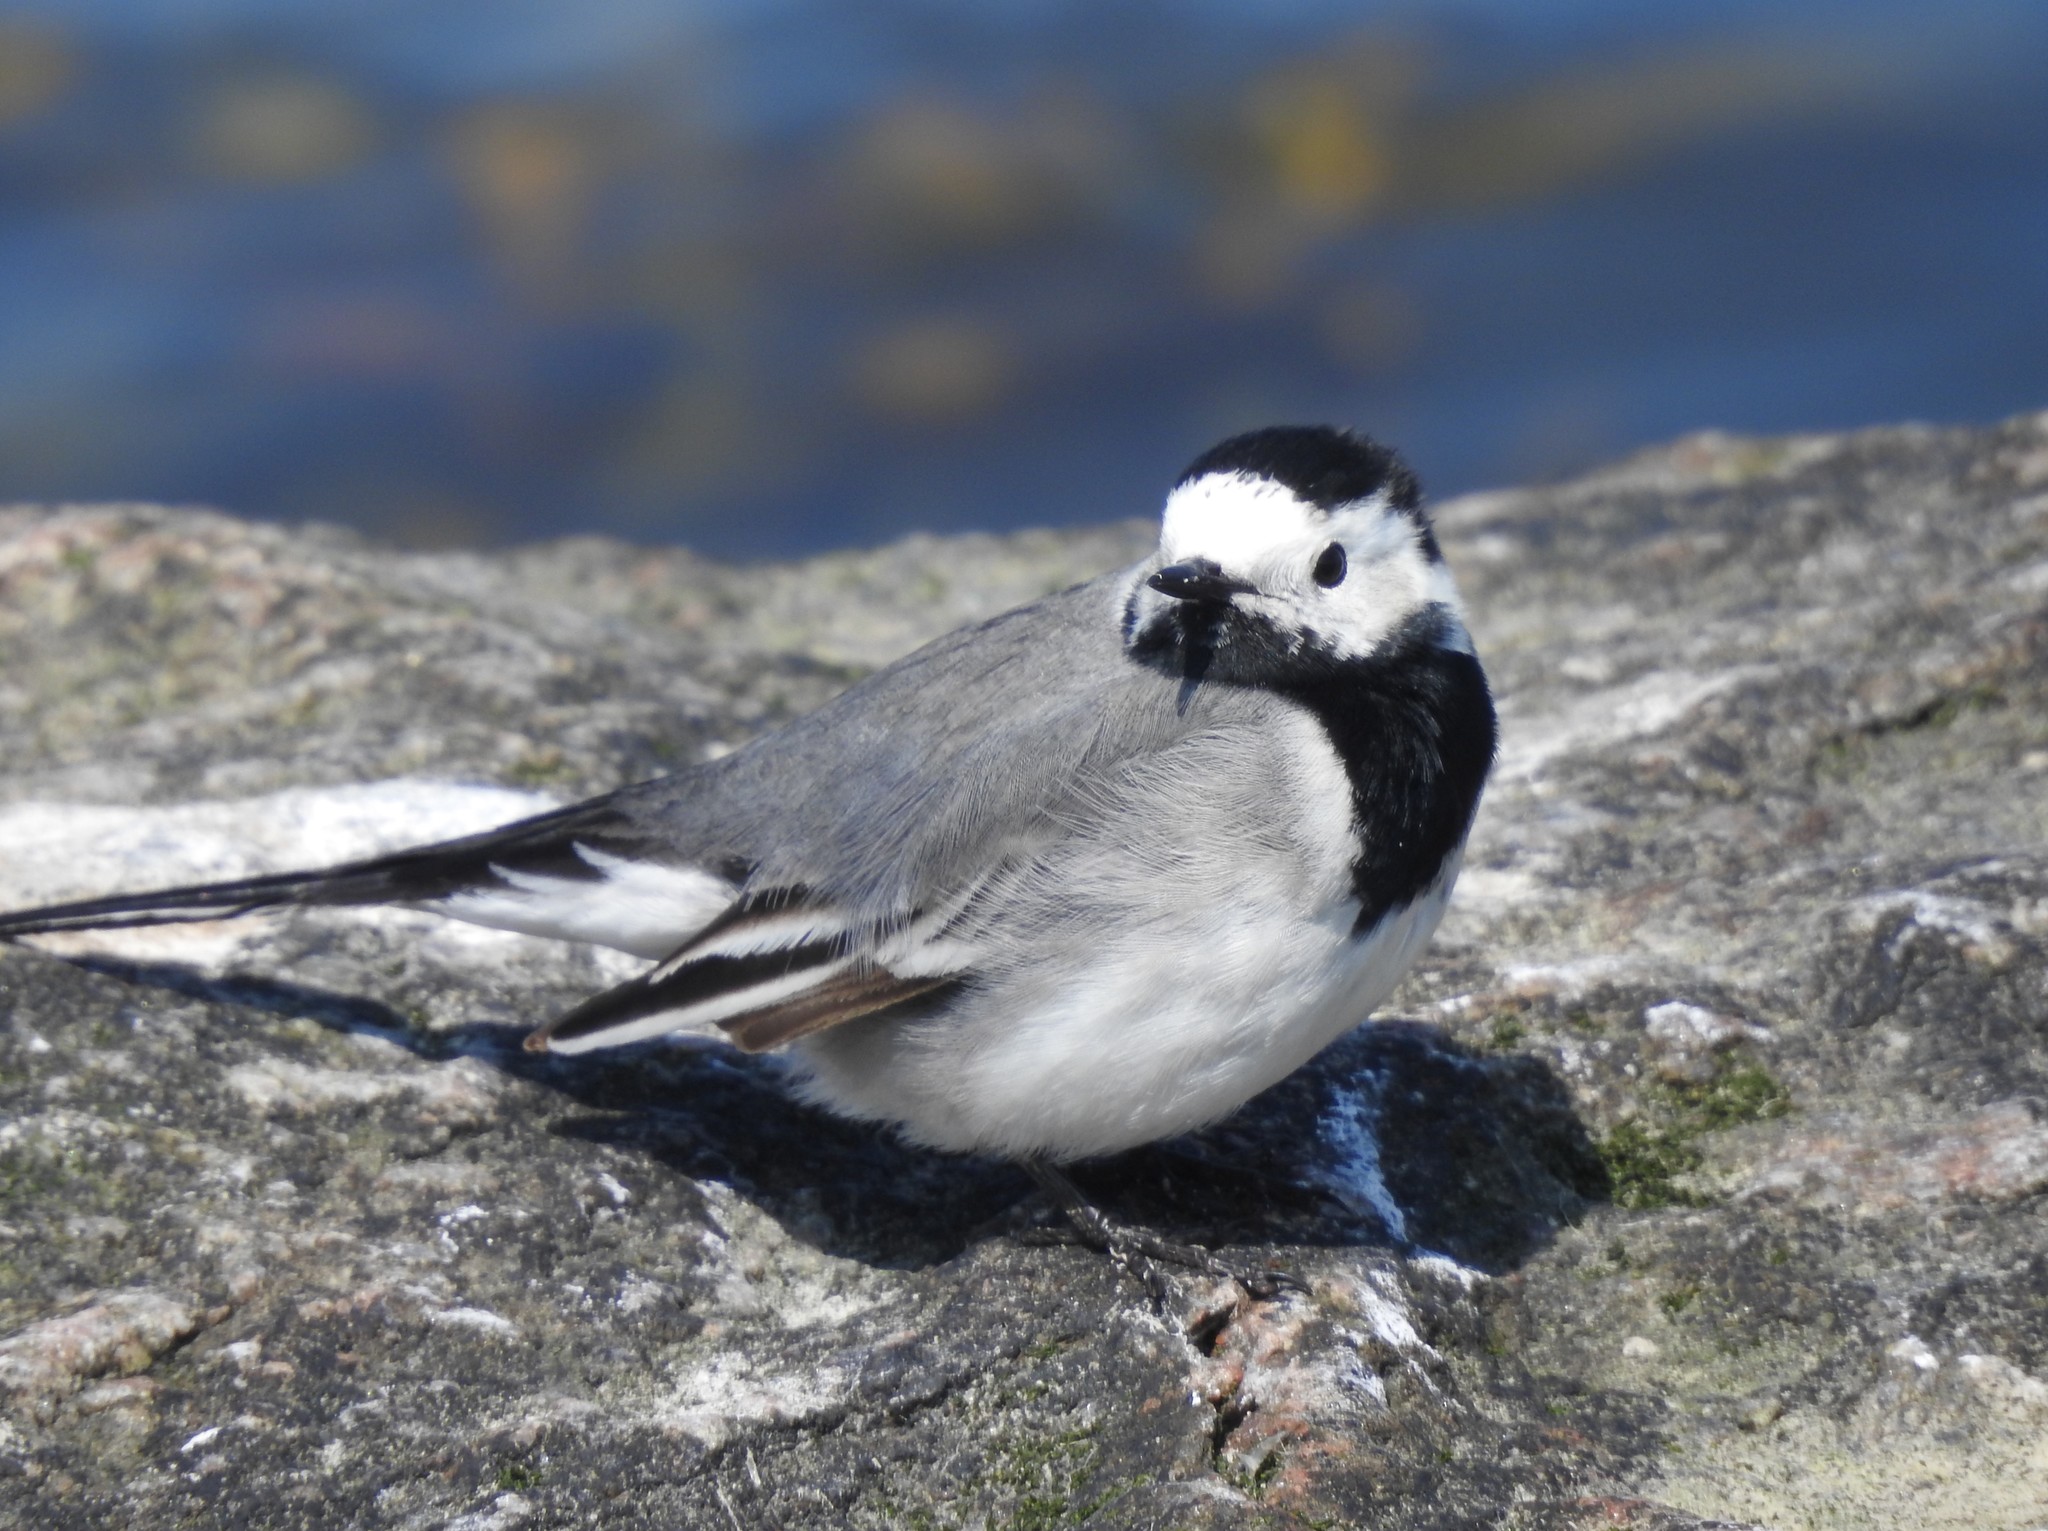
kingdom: Animalia
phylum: Chordata
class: Aves
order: Passeriformes
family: Motacillidae
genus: Motacilla
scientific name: Motacilla alba
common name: White wagtail
